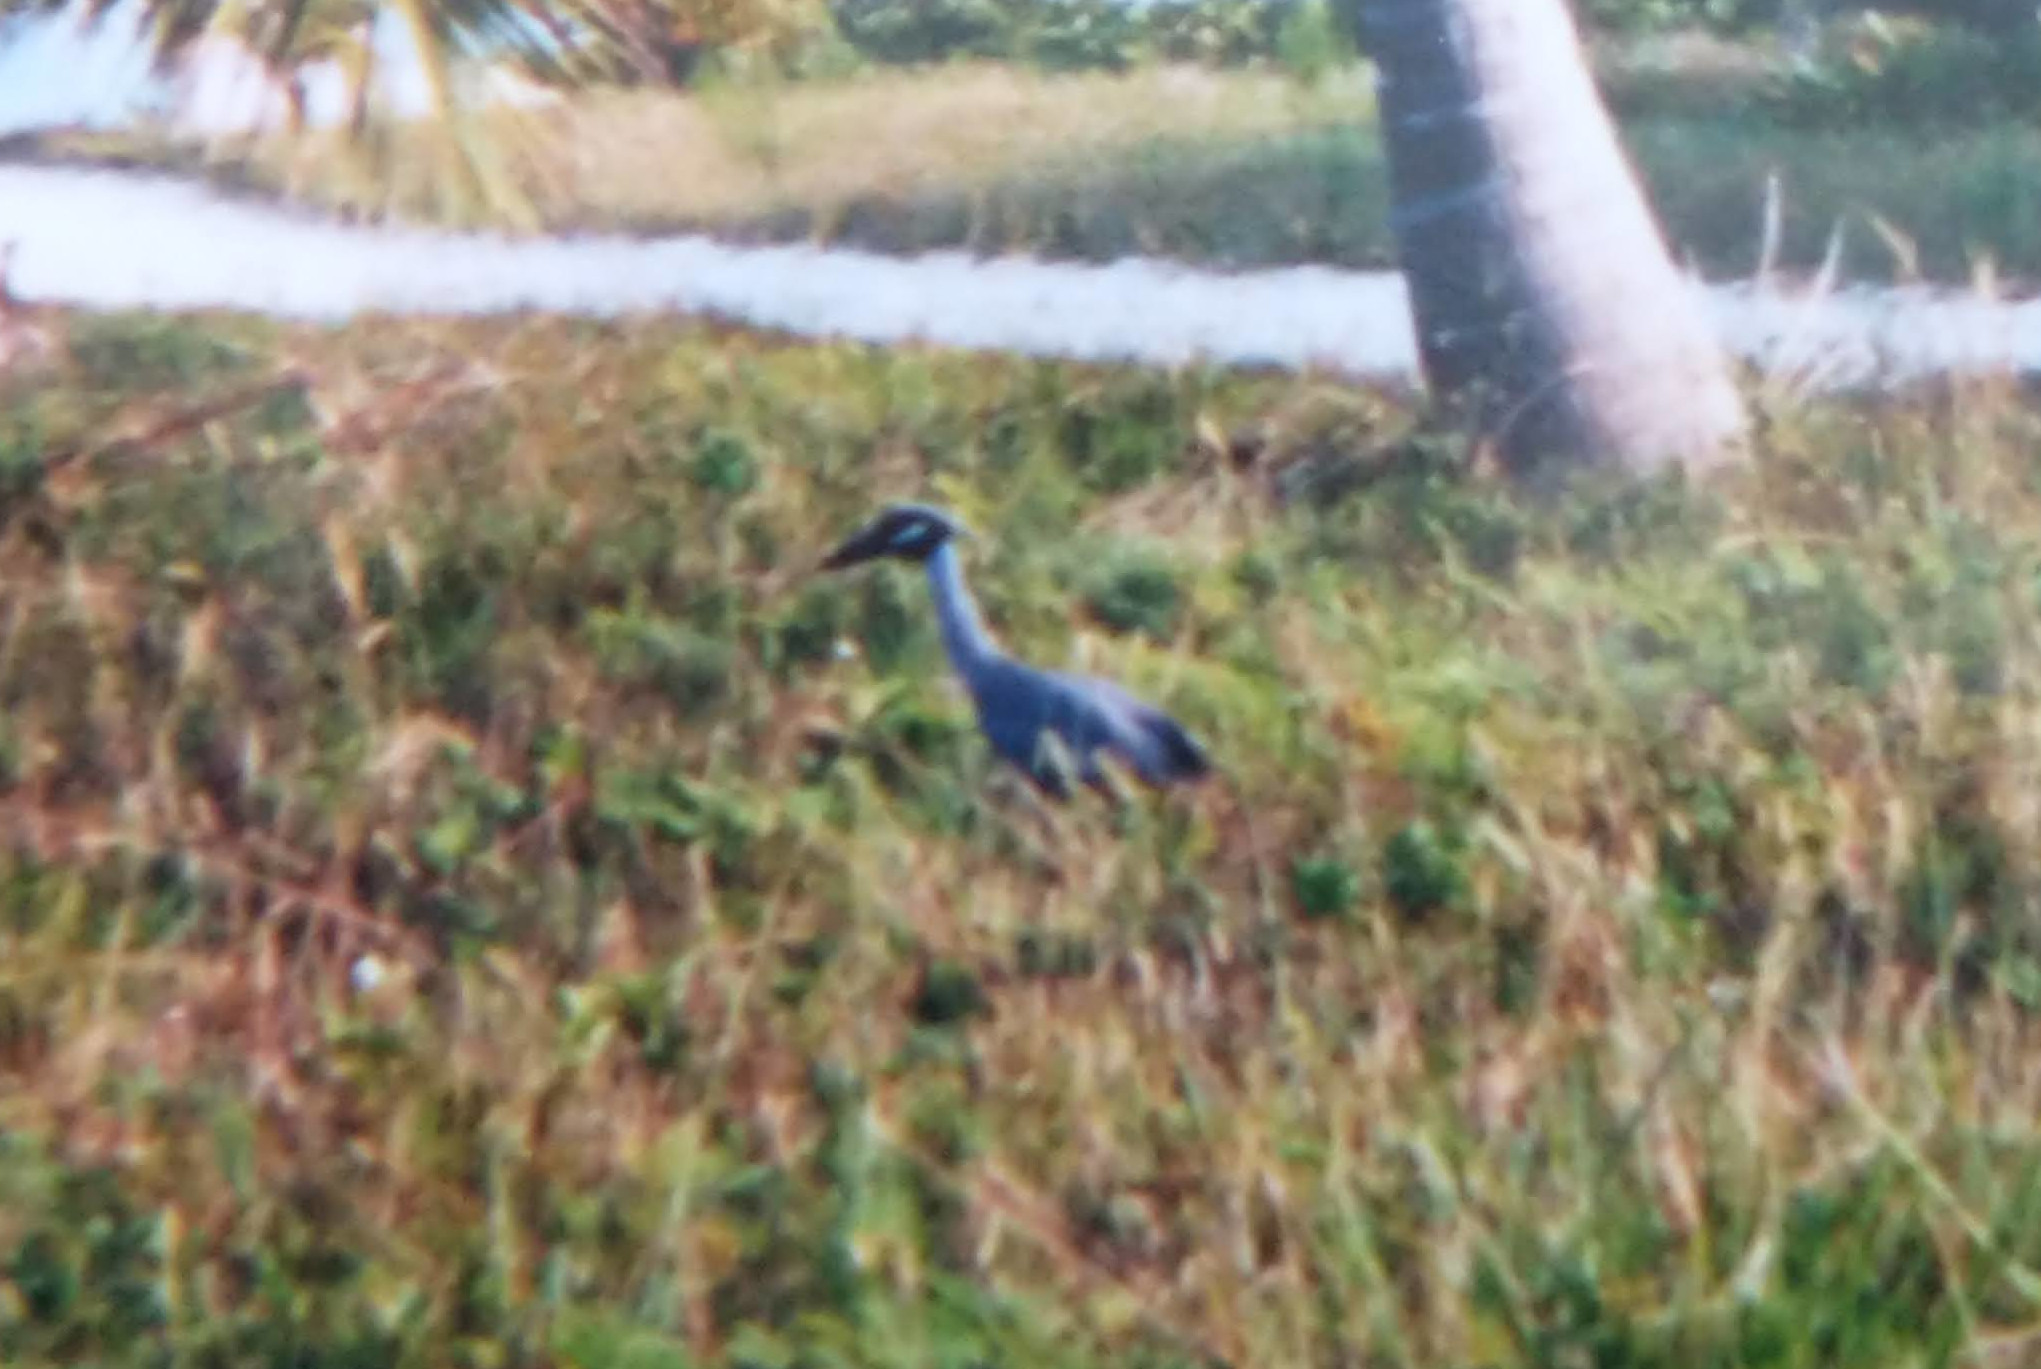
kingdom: Animalia
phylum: Chordata
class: Aves
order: Pelecaniformes
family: Ardeidae
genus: Nyctanassa
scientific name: Nyctanassa violacea
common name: Yellow-crowned night heron
